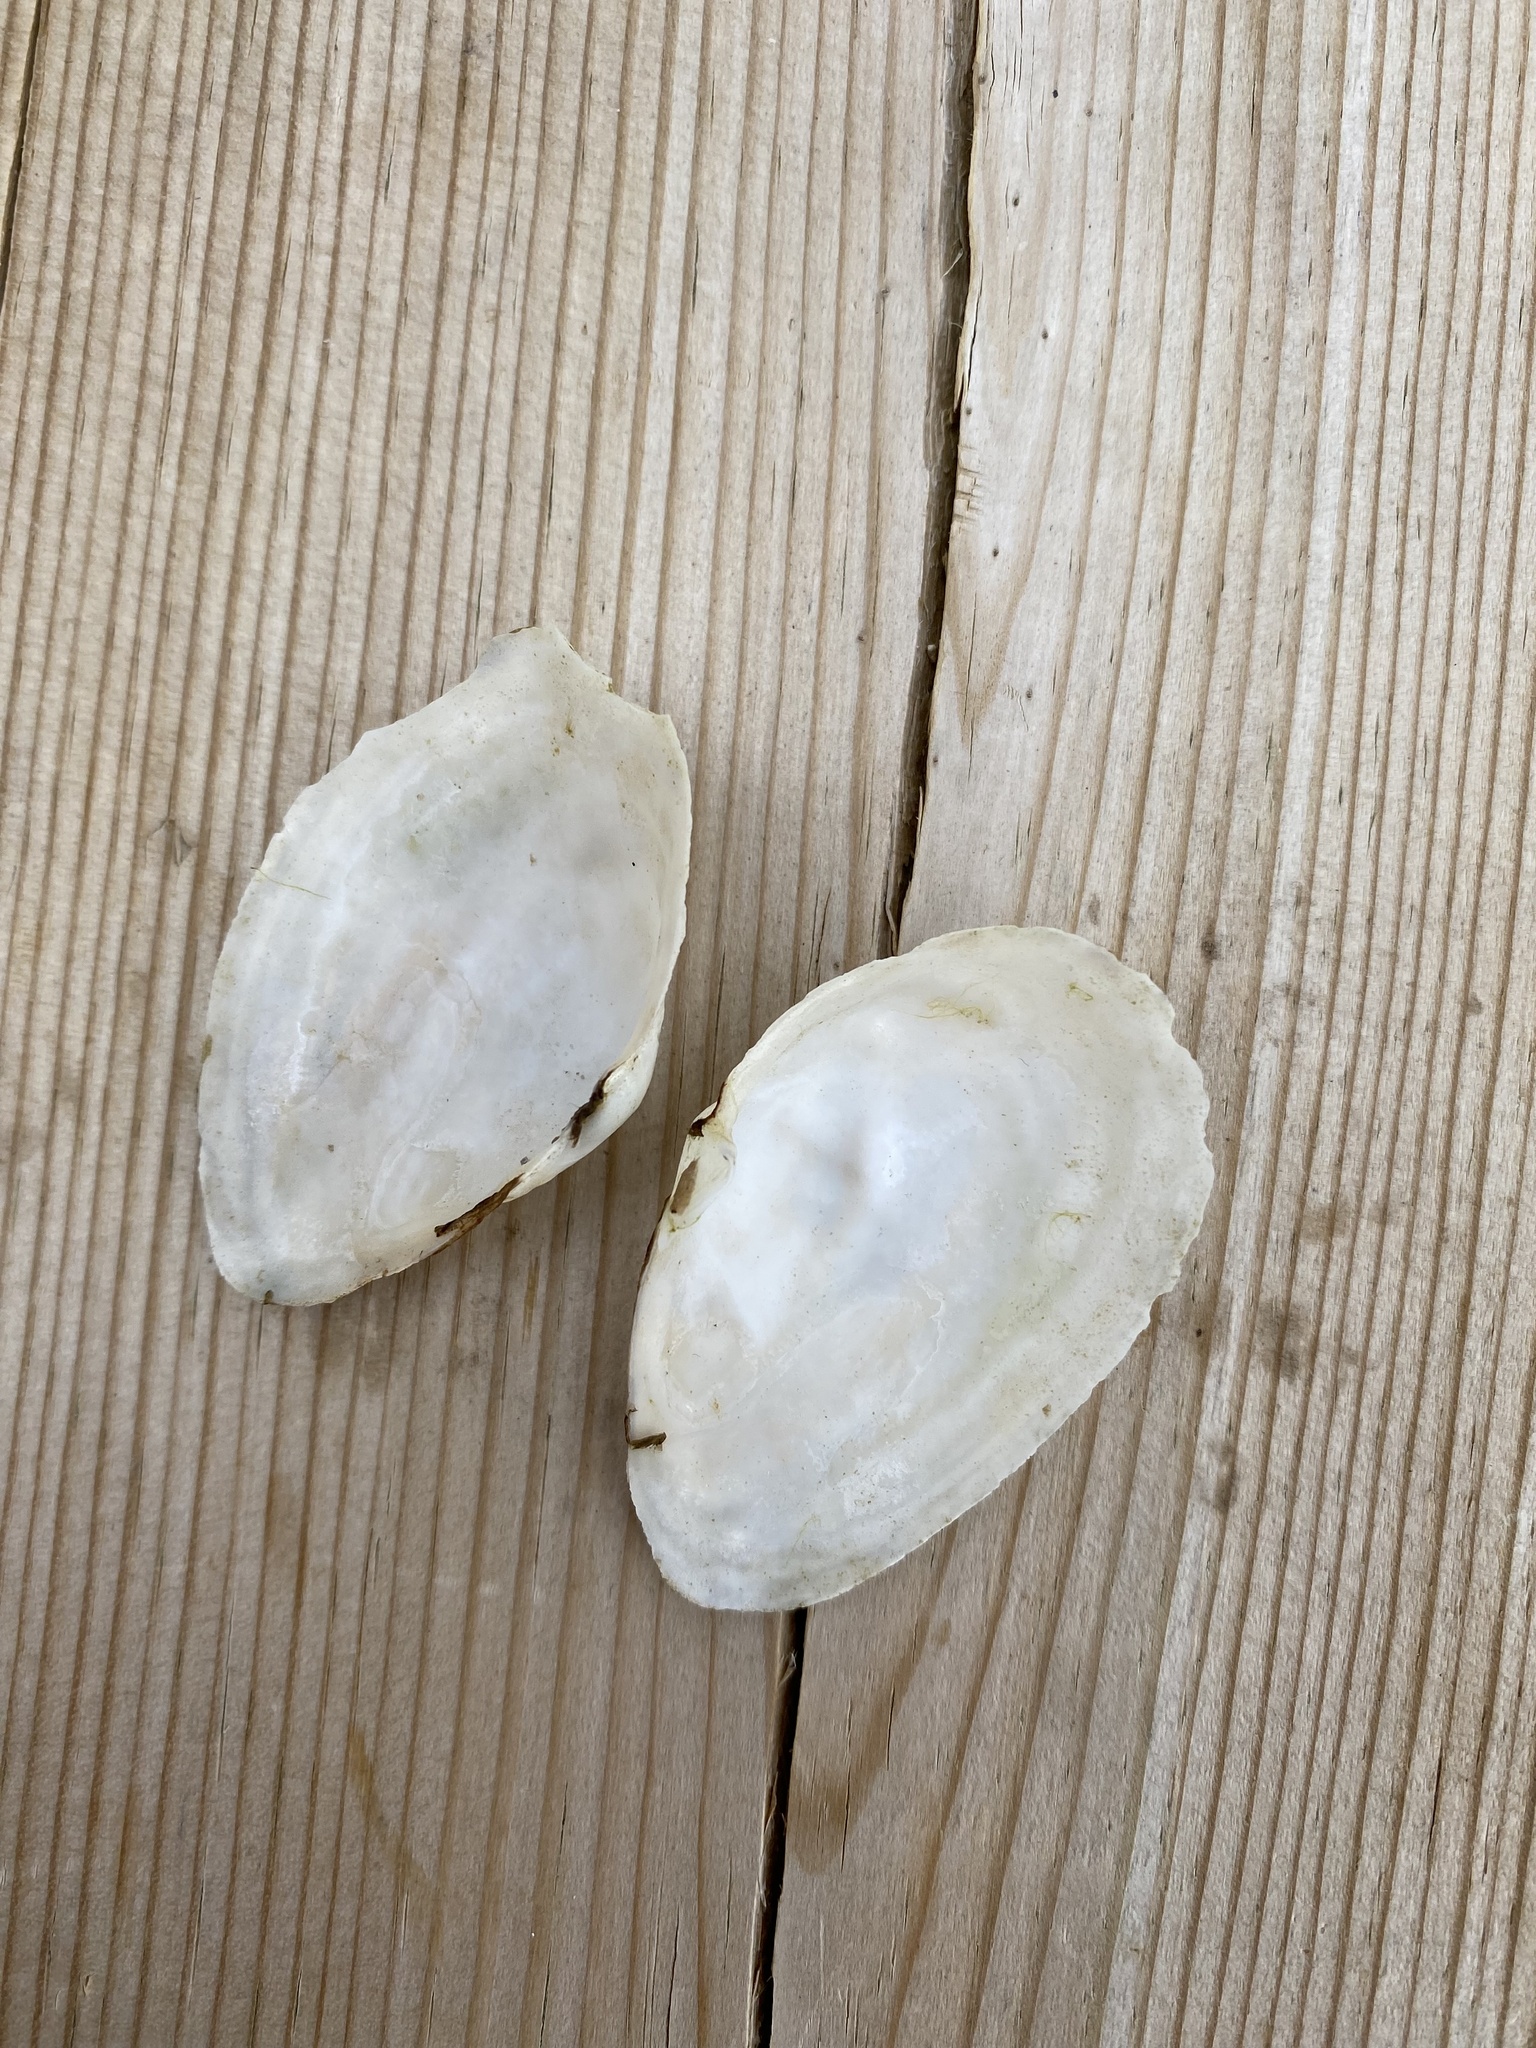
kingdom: Animalia
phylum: Mollusca
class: Bivalvia
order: Myida
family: Myidae
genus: Mya
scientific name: Mya arenaria
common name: Soft-shelled clam
